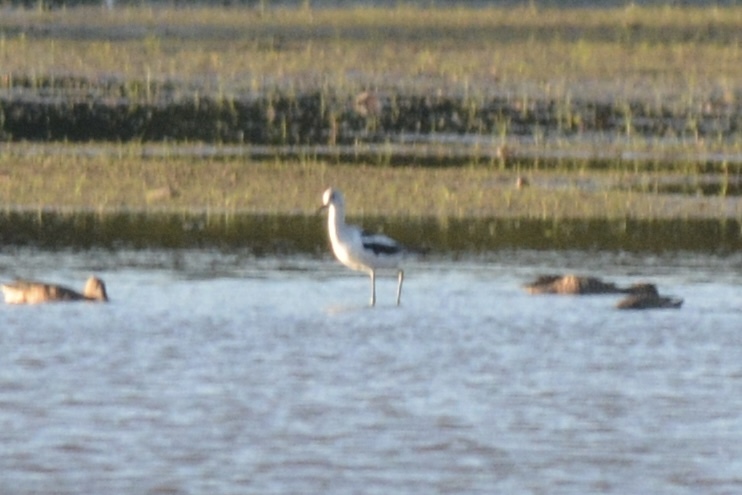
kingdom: Animalia
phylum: Chordata
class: Aves
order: Charadriiformes
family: Recurvirostridae
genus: Recurvirostra
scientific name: Recurvirostra americana
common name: American avocet
